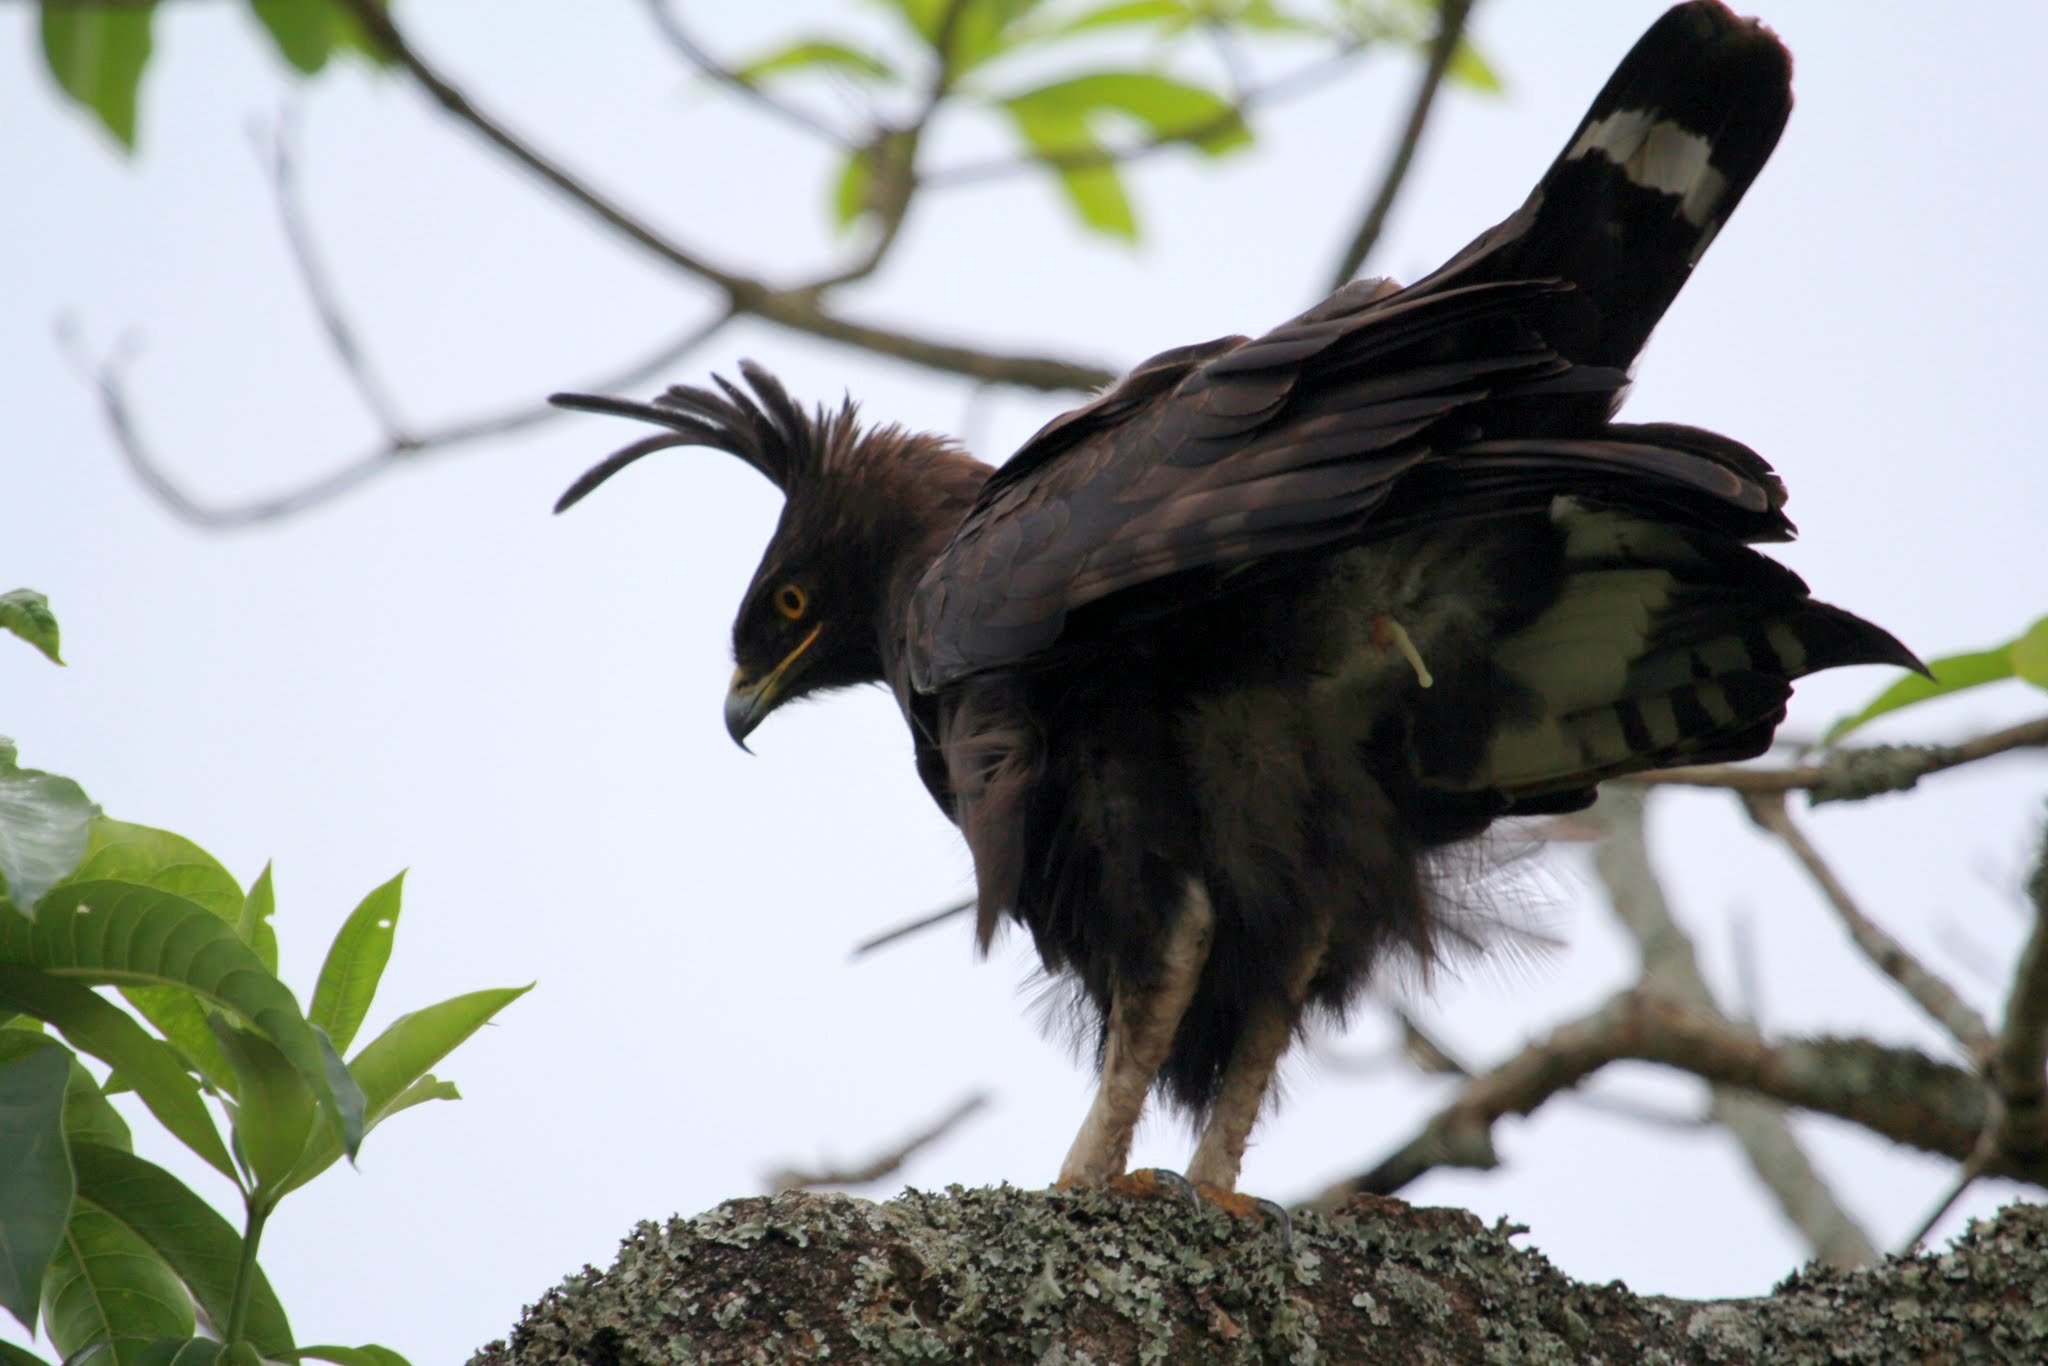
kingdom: Animalia
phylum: Chordata
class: Aves
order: Accipitriformes
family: Accipitridae
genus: Lophaetus
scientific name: Lophaetus occipitalis
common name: Long-crested eagle
